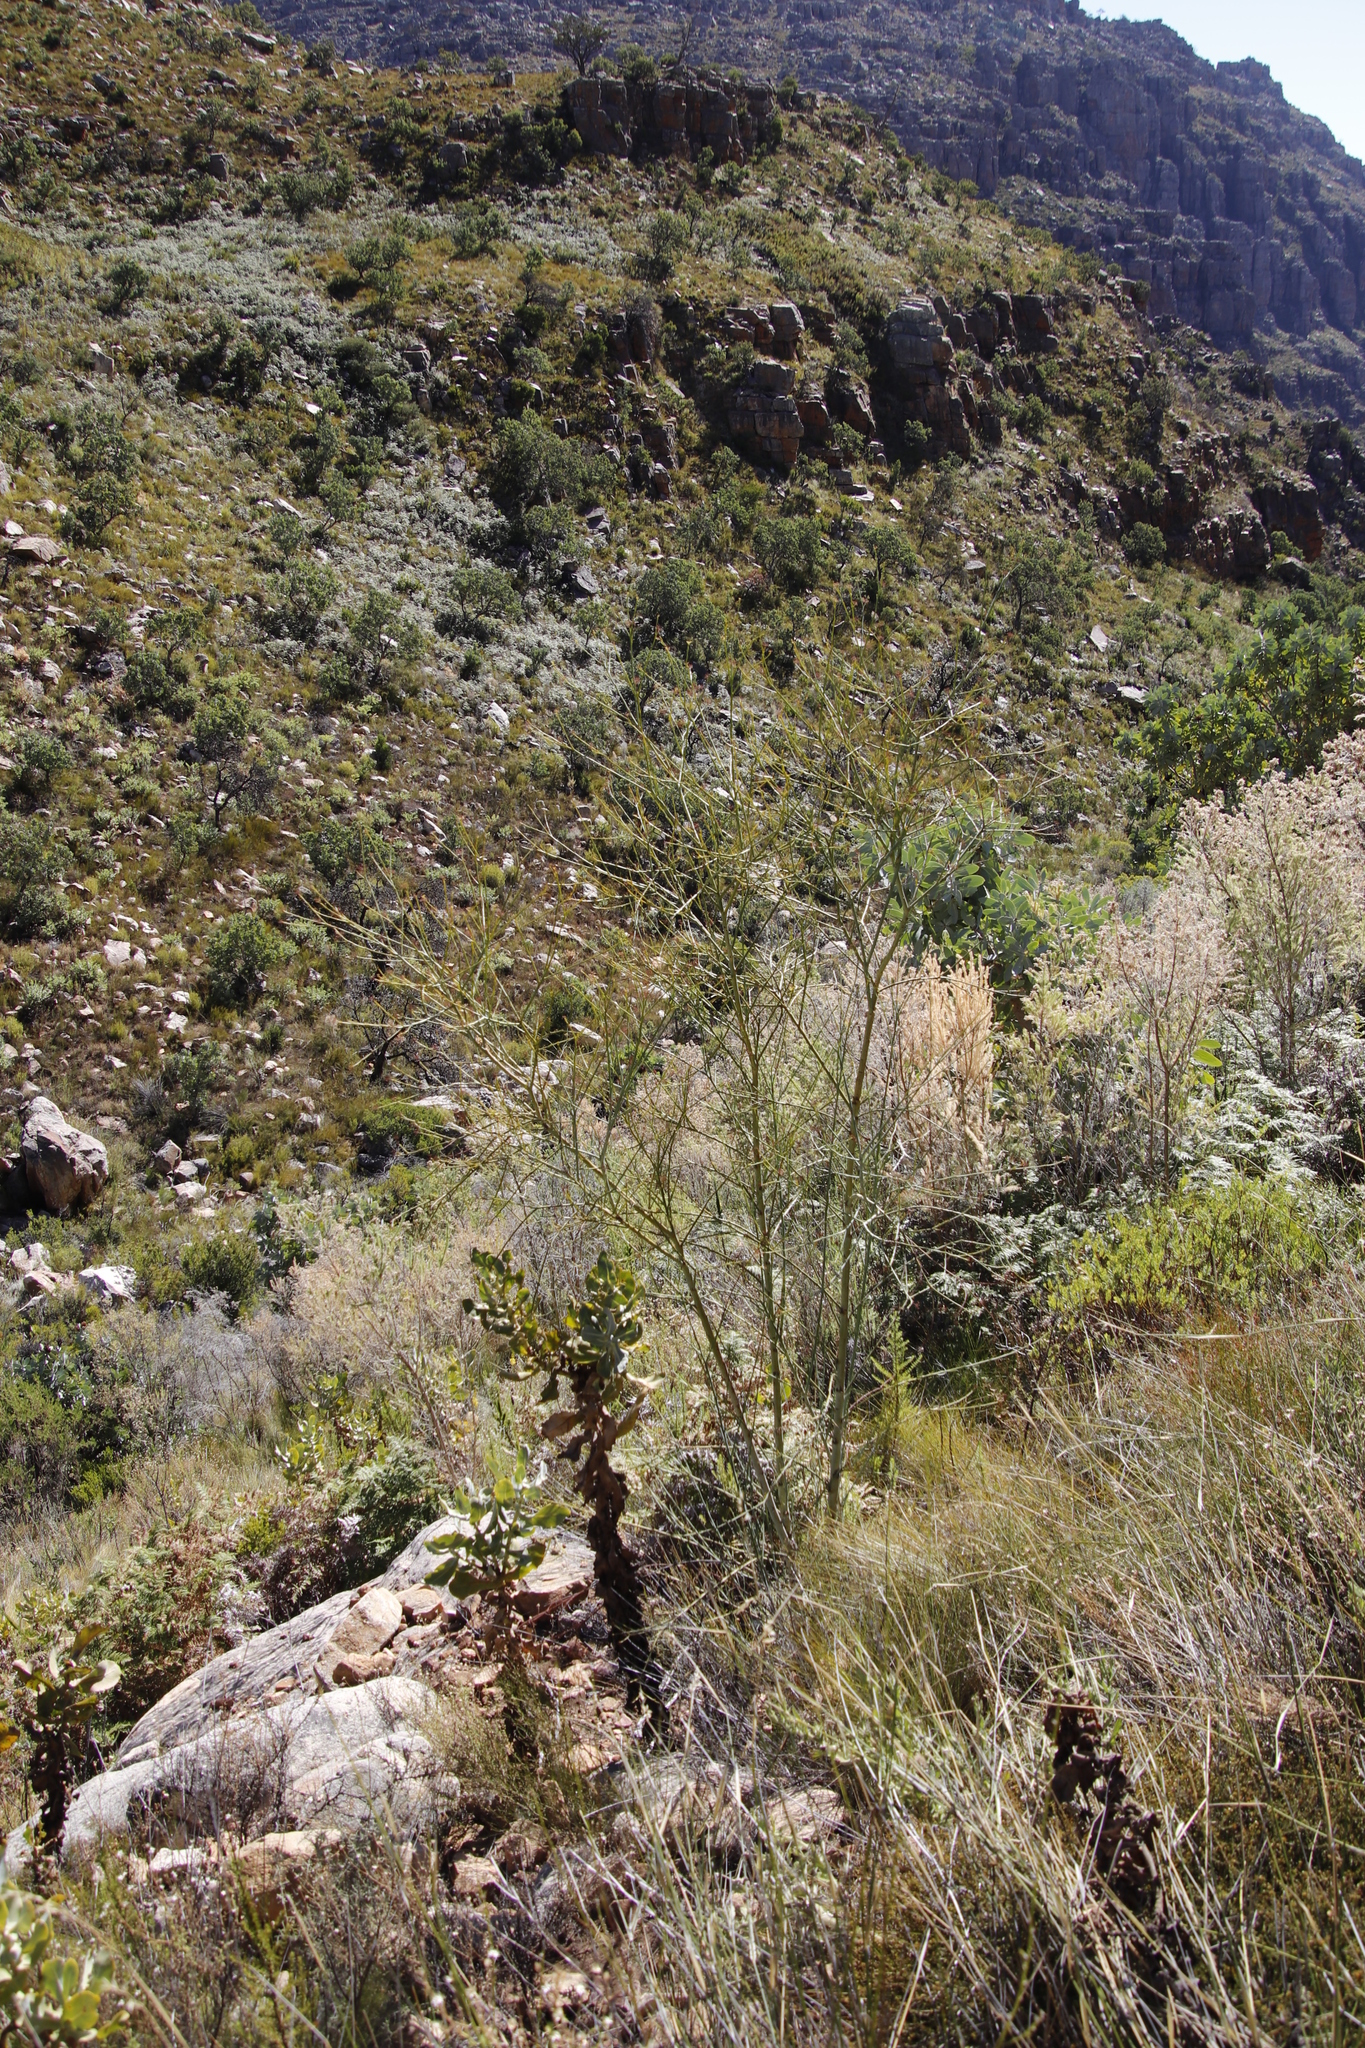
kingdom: Plantae
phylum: Tracheophyta
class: Magnoliopsida
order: Santalales
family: Thesiaceae
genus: Thesium
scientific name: Thesium strictum
